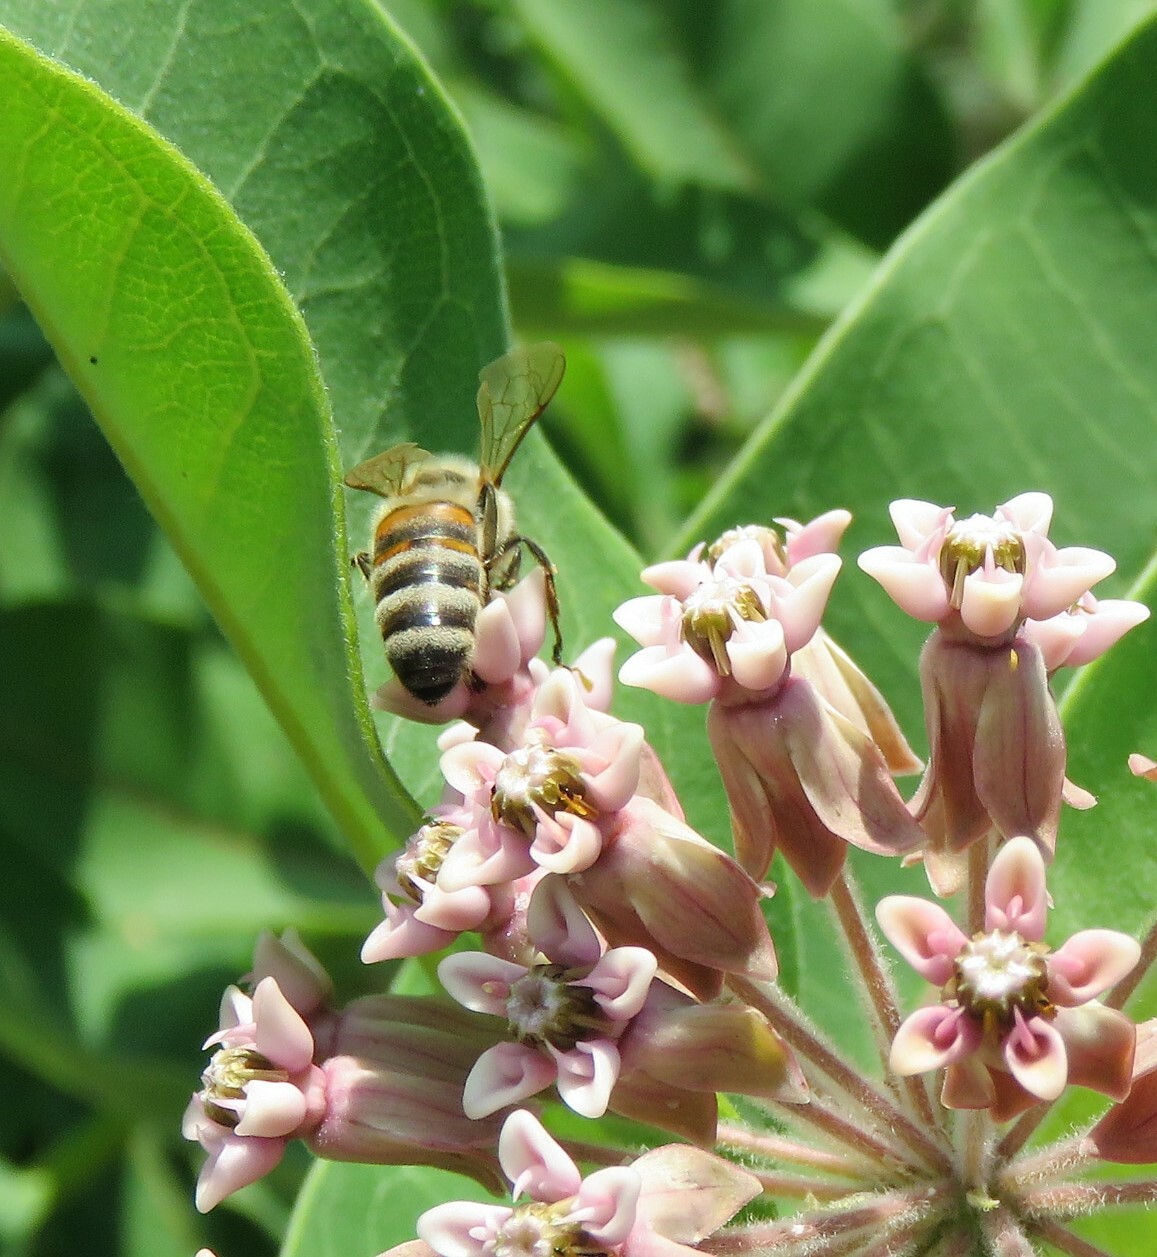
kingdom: Animalia
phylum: Arthropoda
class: Insecta
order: Hymenoptera
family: Apidae
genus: Apis
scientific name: Apis mellifera
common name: Honey bee
